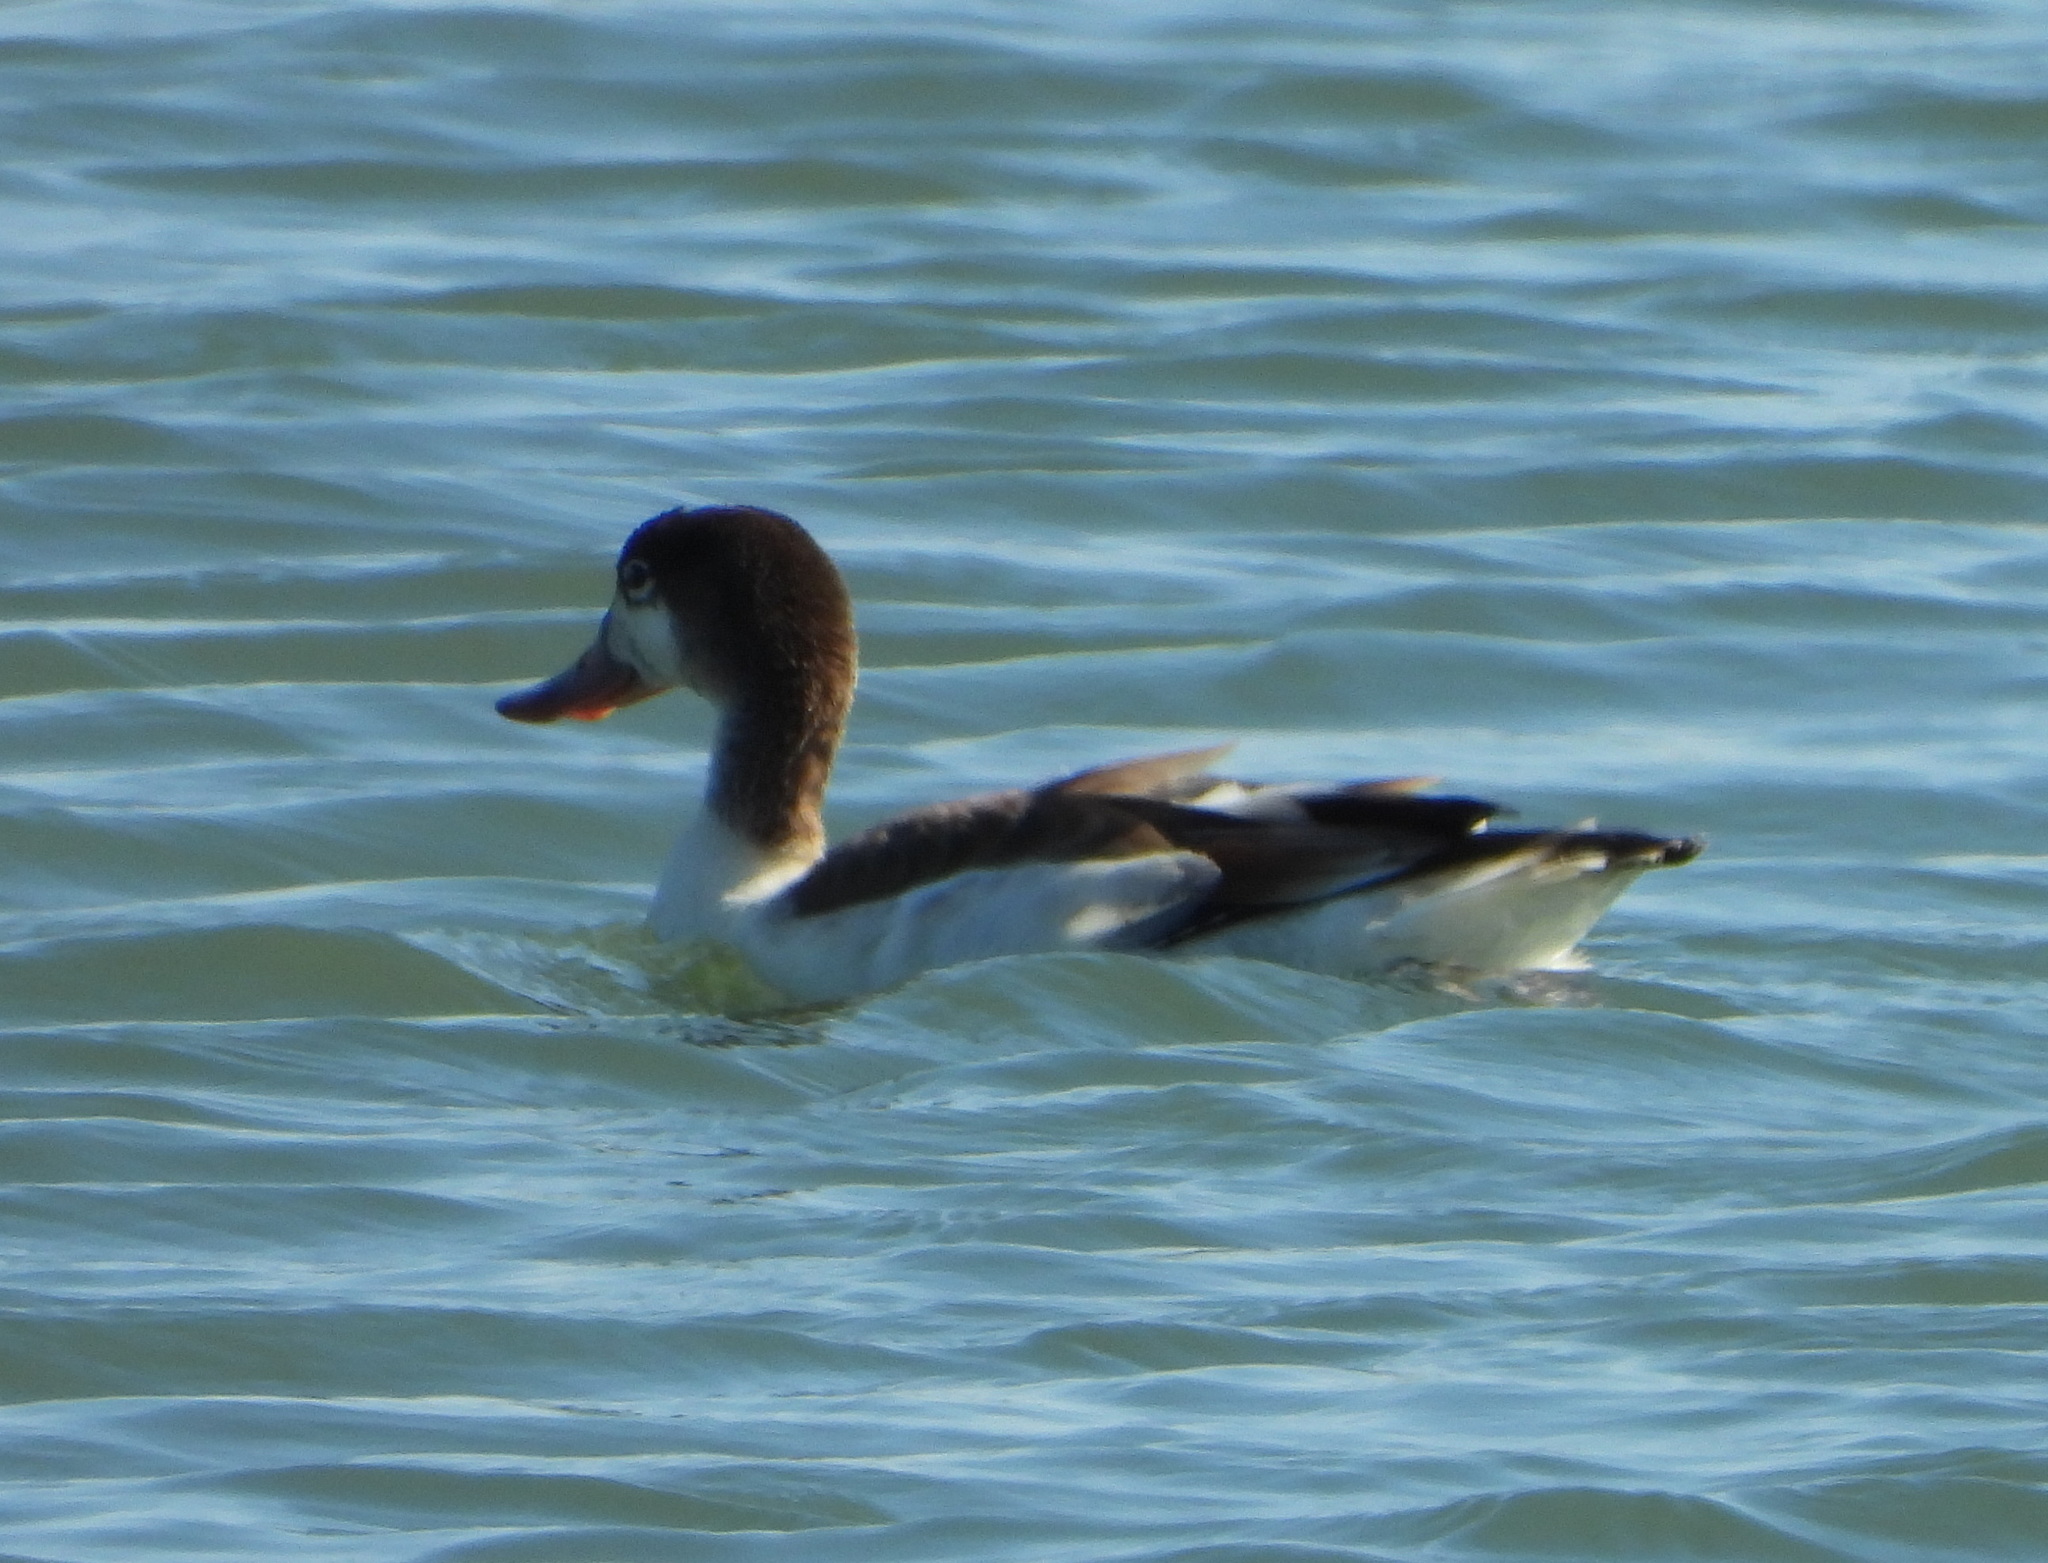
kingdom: Animalia
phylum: Chordata
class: Aves
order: Anseriformes
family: Anatidae
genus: Tadorna
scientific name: Tadorna tadorna
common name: Common shelduck
